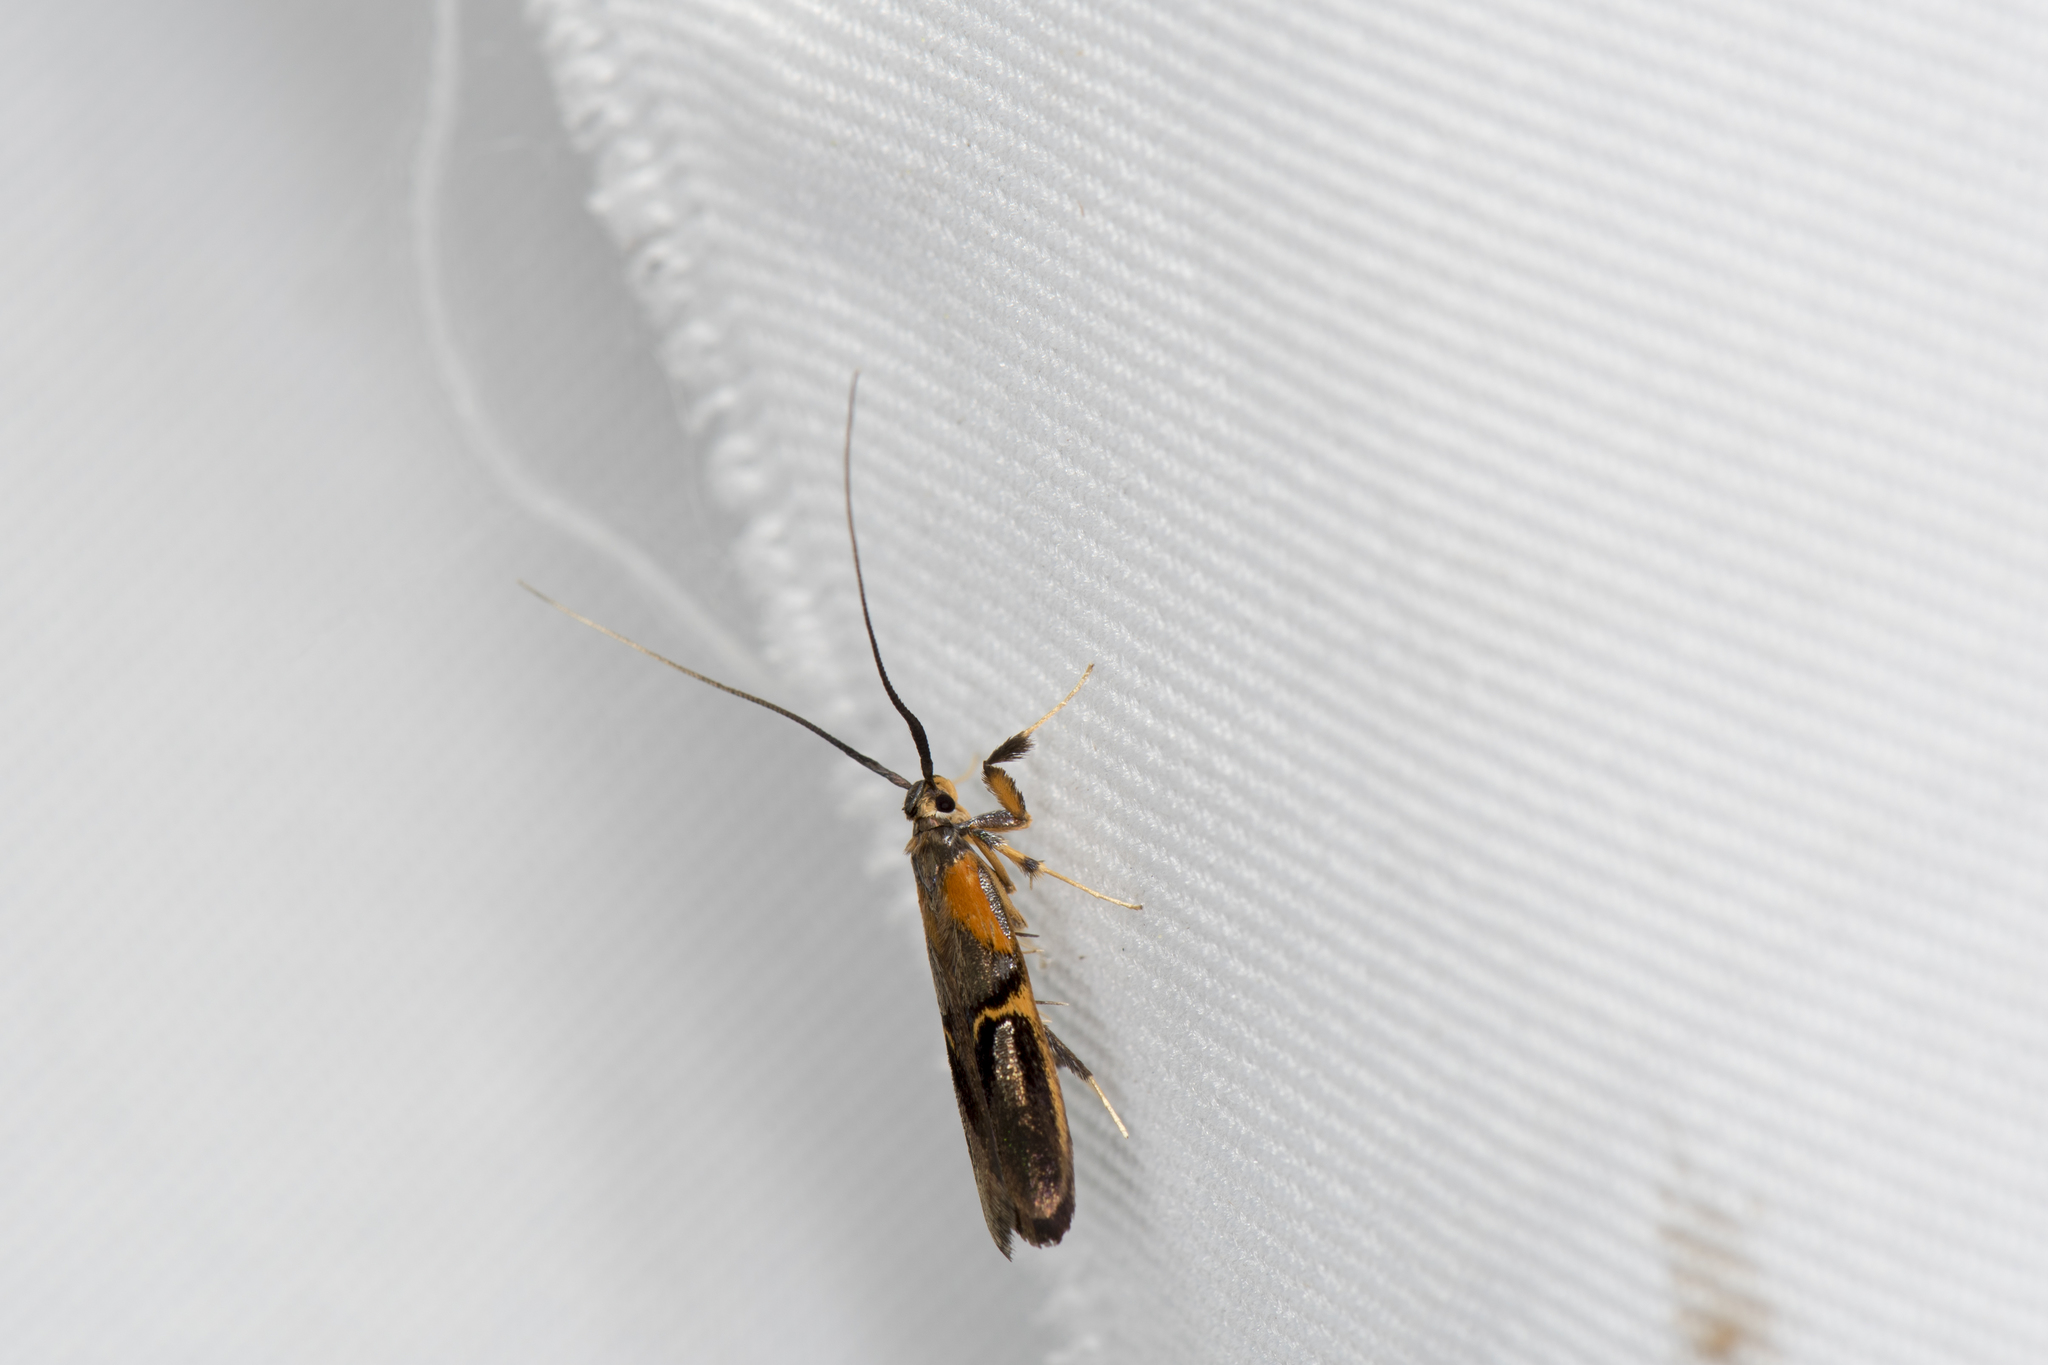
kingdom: Animalia
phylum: Arthropoda
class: Insecta
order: Lepidoptera
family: Lecithoceridae
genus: Tisis
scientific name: Tisis mesozosta
